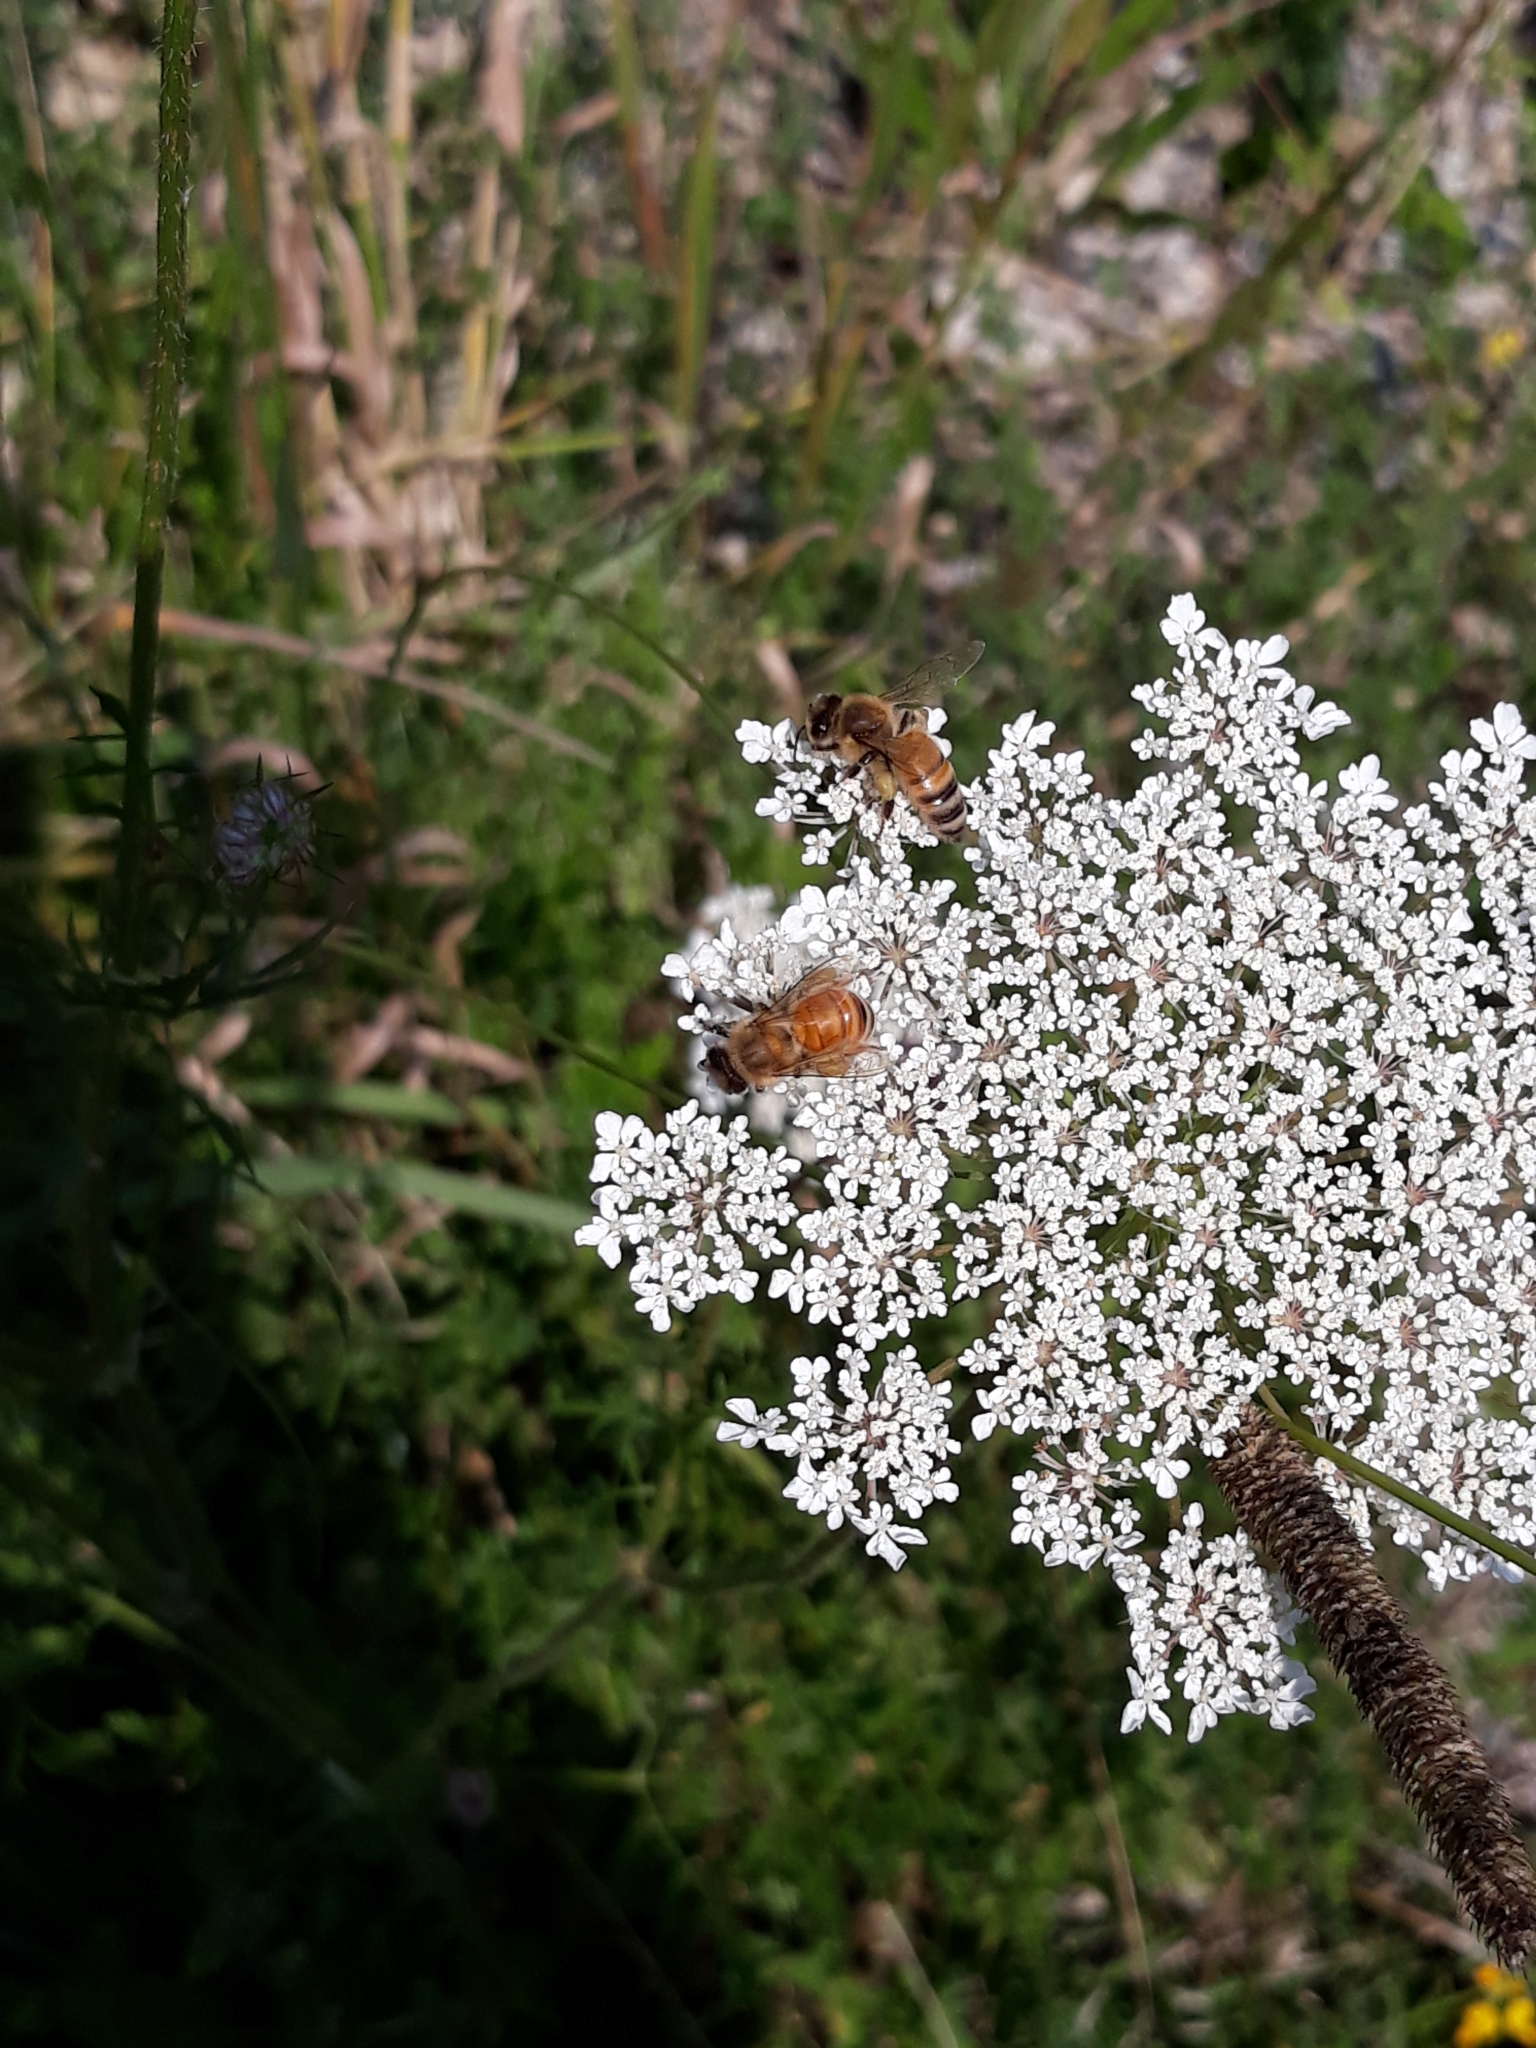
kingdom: Animalia
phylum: Arthropoda
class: Insecta
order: Hymenoptera
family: Apidae
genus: Apis
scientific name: Apis mellifera
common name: Honey bee
